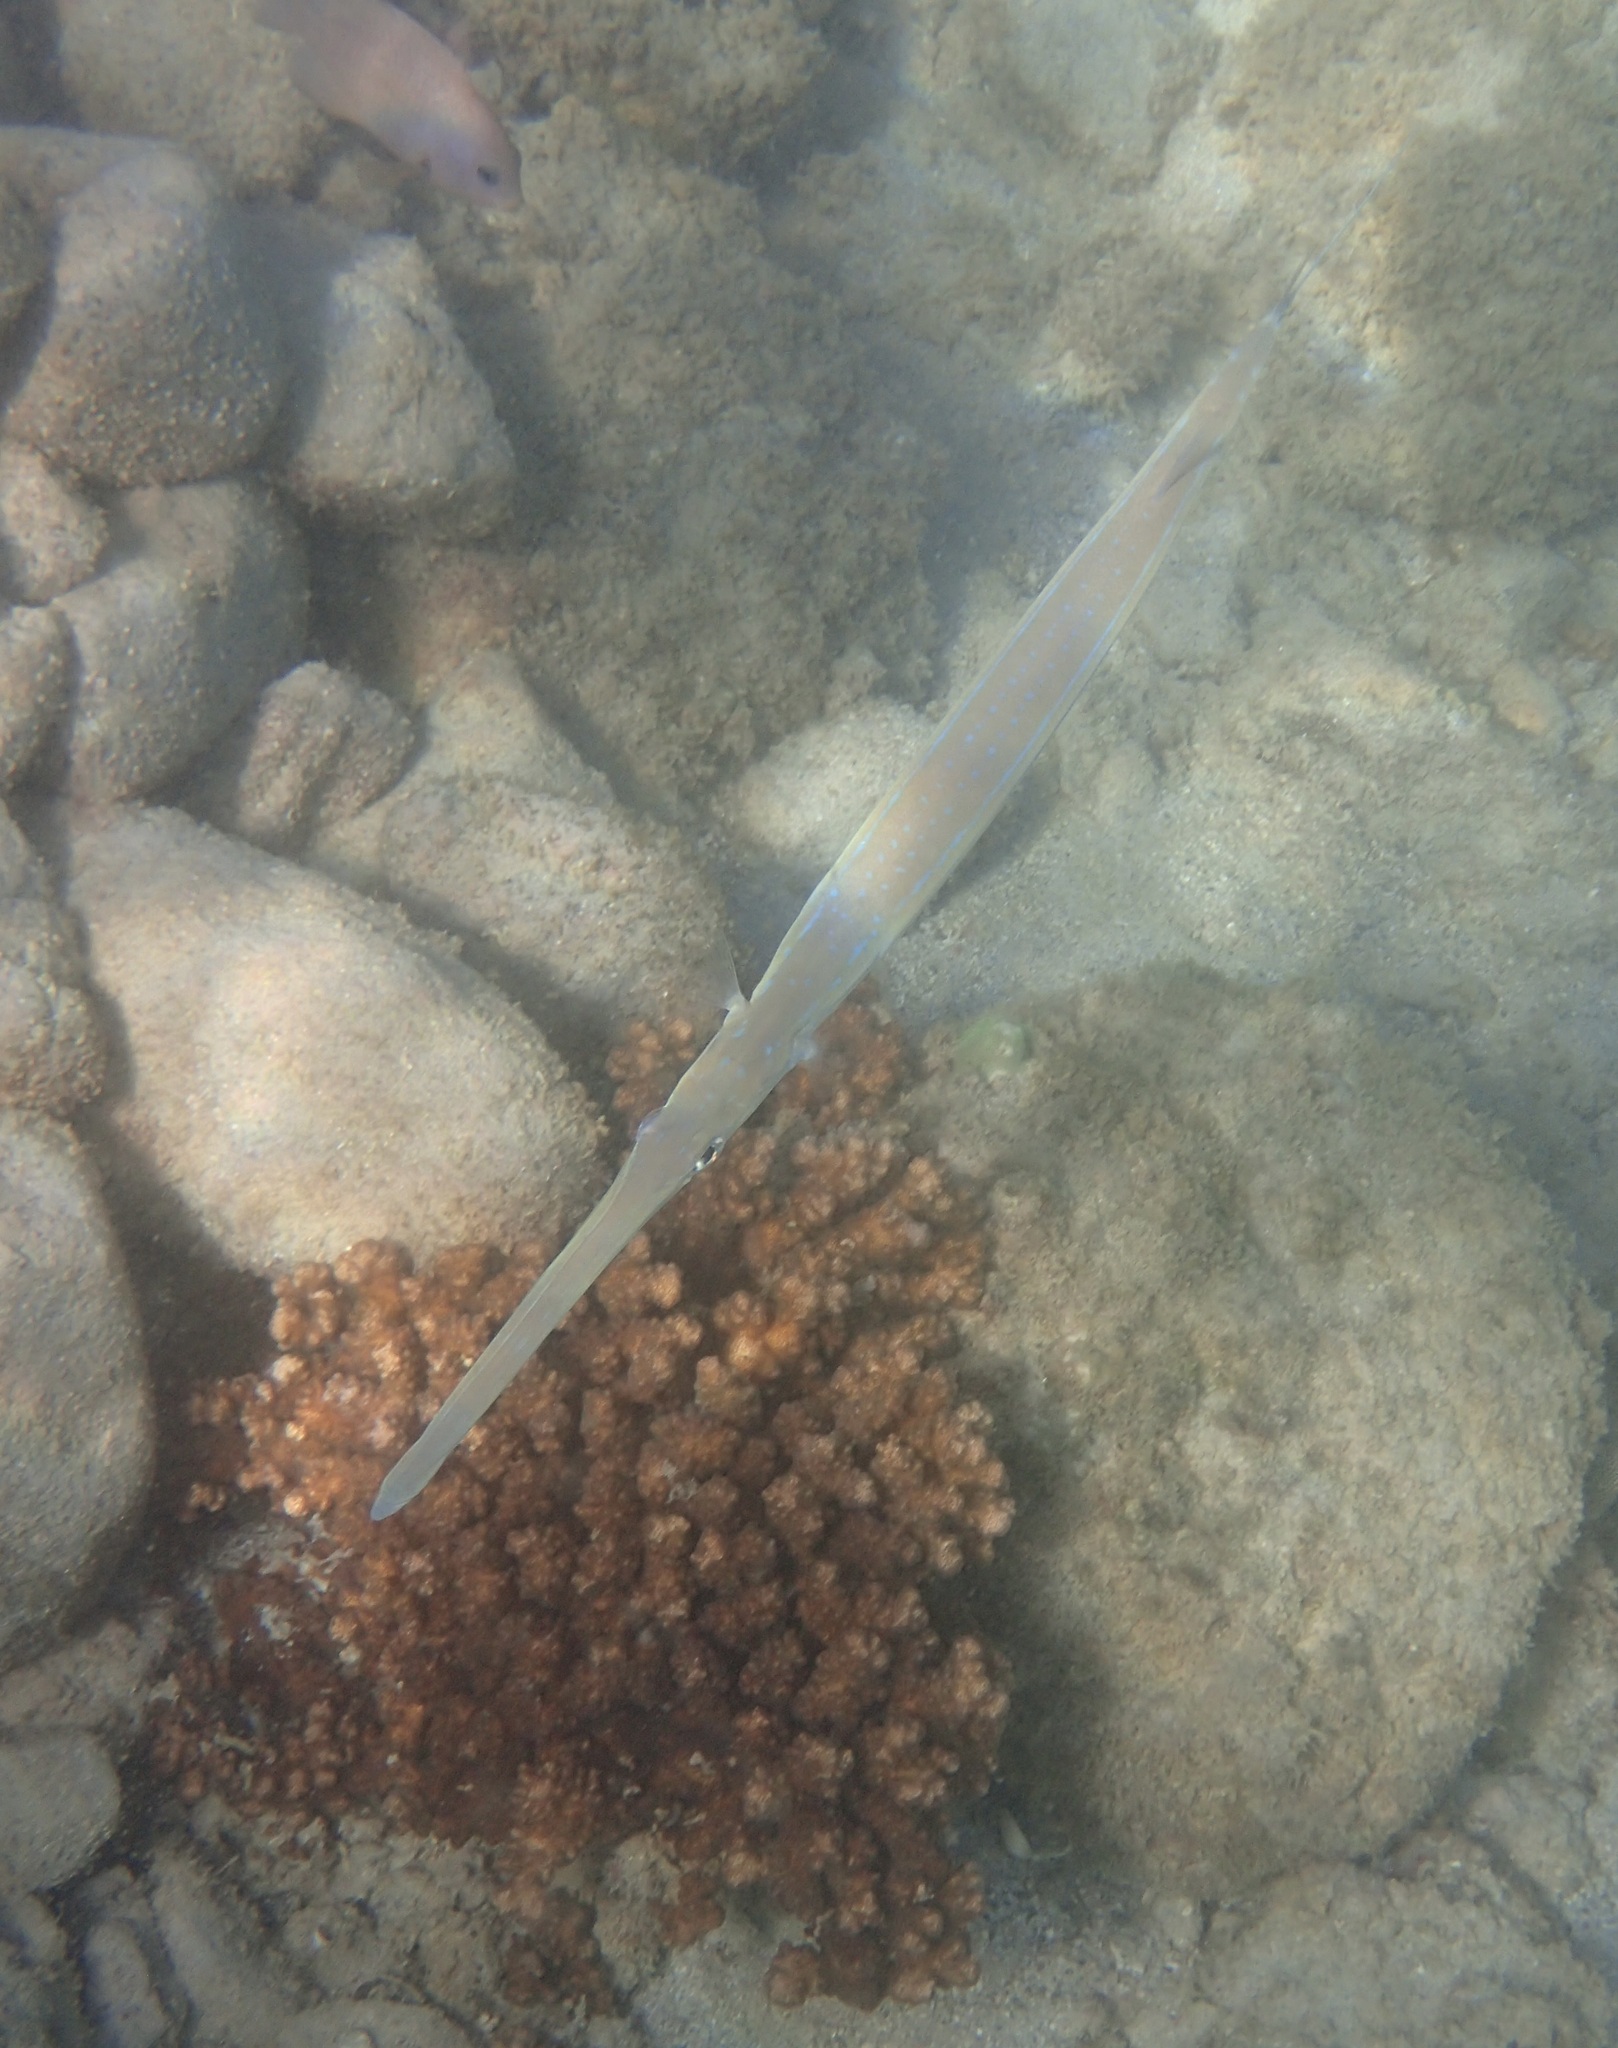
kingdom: Animalia
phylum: Chordata
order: Syngnathiformes
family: Fistulariidae
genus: Fistularia
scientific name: Fistularia commersonii
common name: Bluespotted cornetfish
